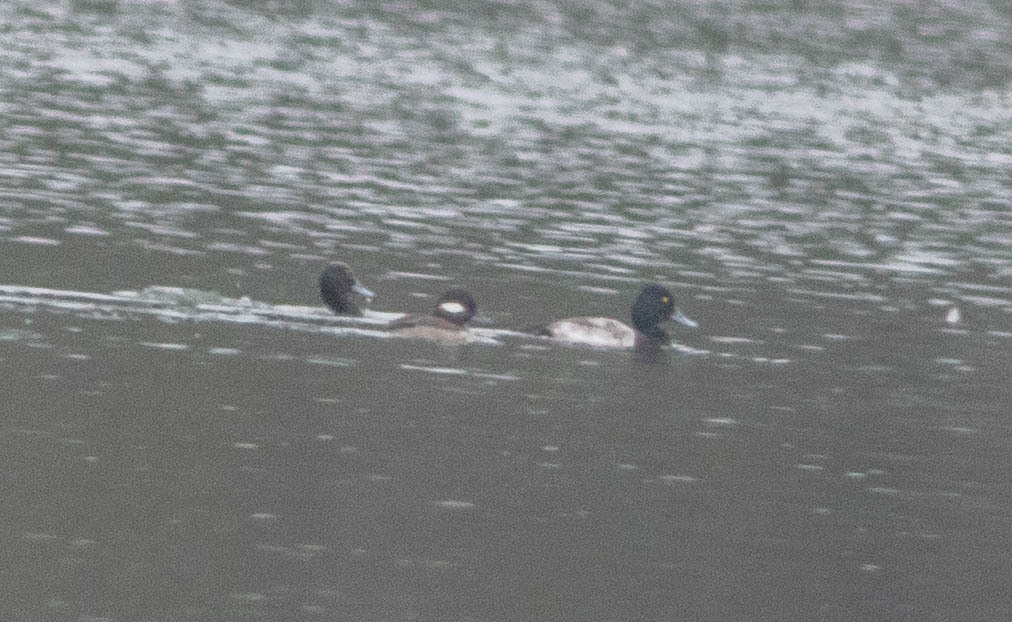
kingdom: Animalia
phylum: Chordata
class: Aves
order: Anseriformes
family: Anatidae
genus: Bucephala
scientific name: Bucephala albeola
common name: Bufflehead
